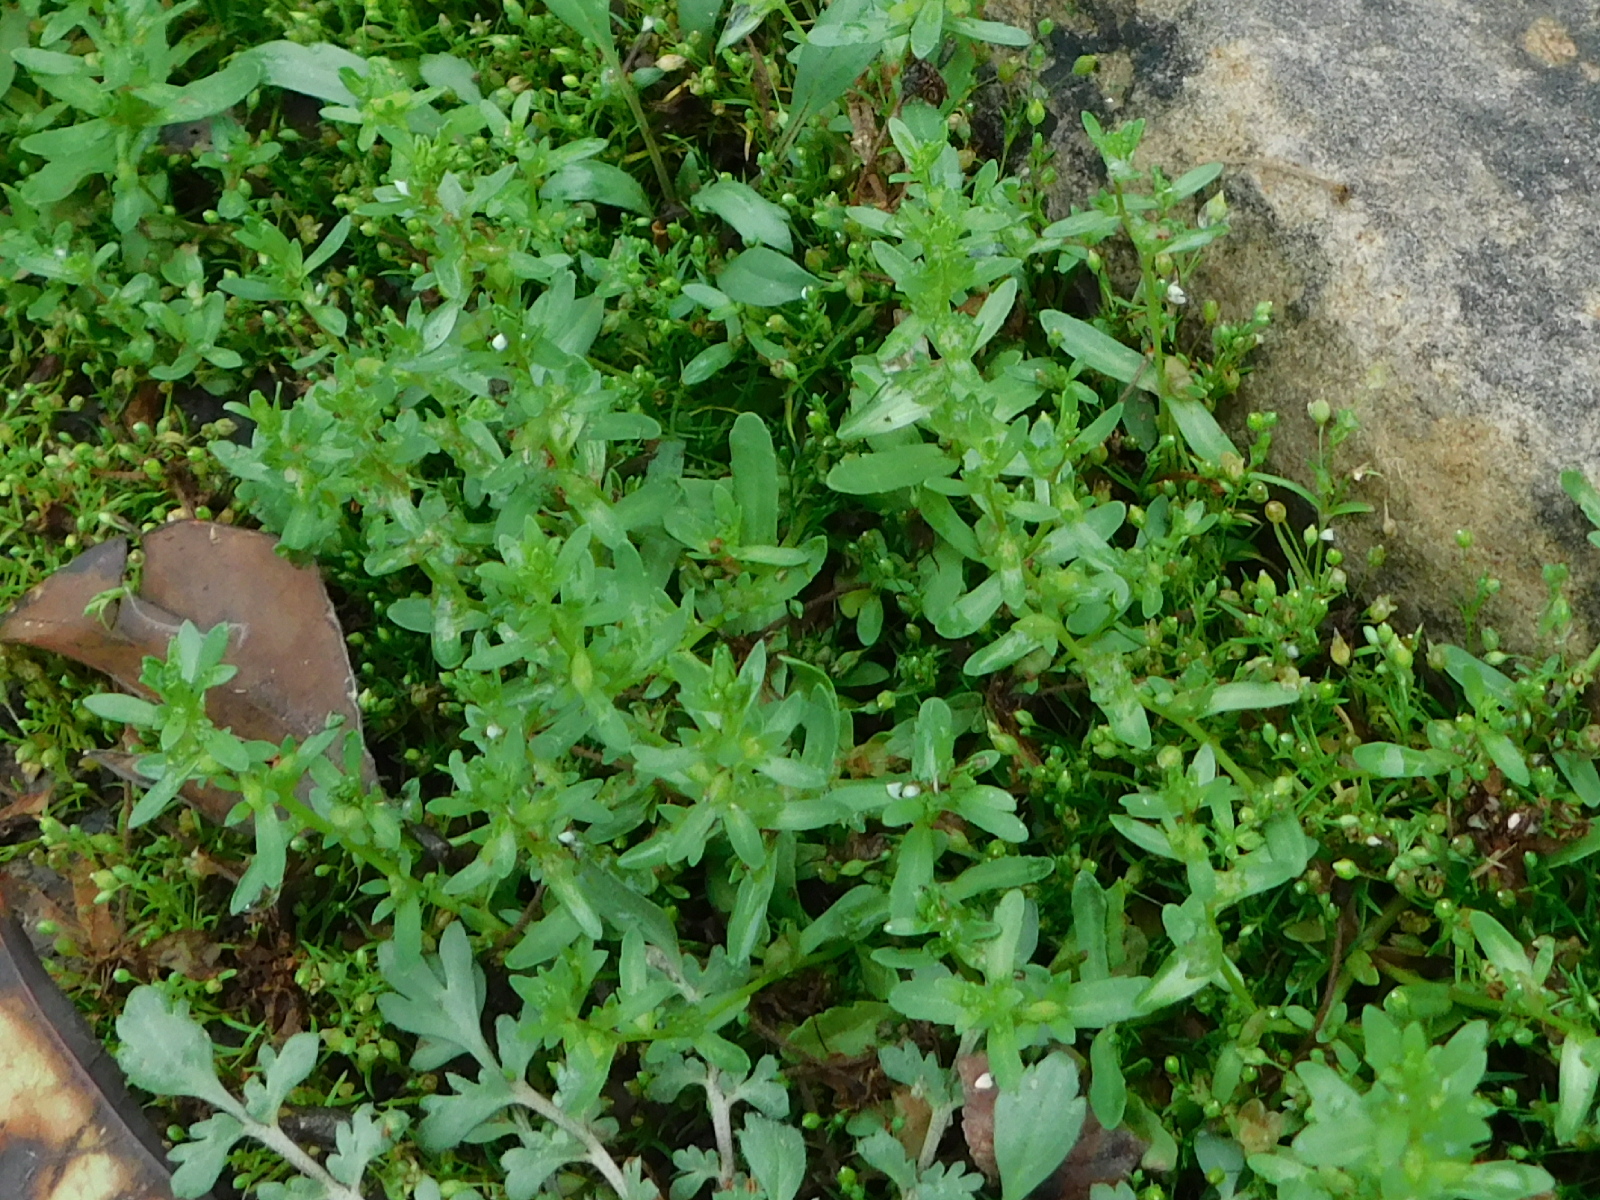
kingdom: Plantae
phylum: Tracheophyta
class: Magnoliopsida
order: Lamiales
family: Plantaginaceae
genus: Veronica
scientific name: Veronica peregrina
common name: Neckweed
